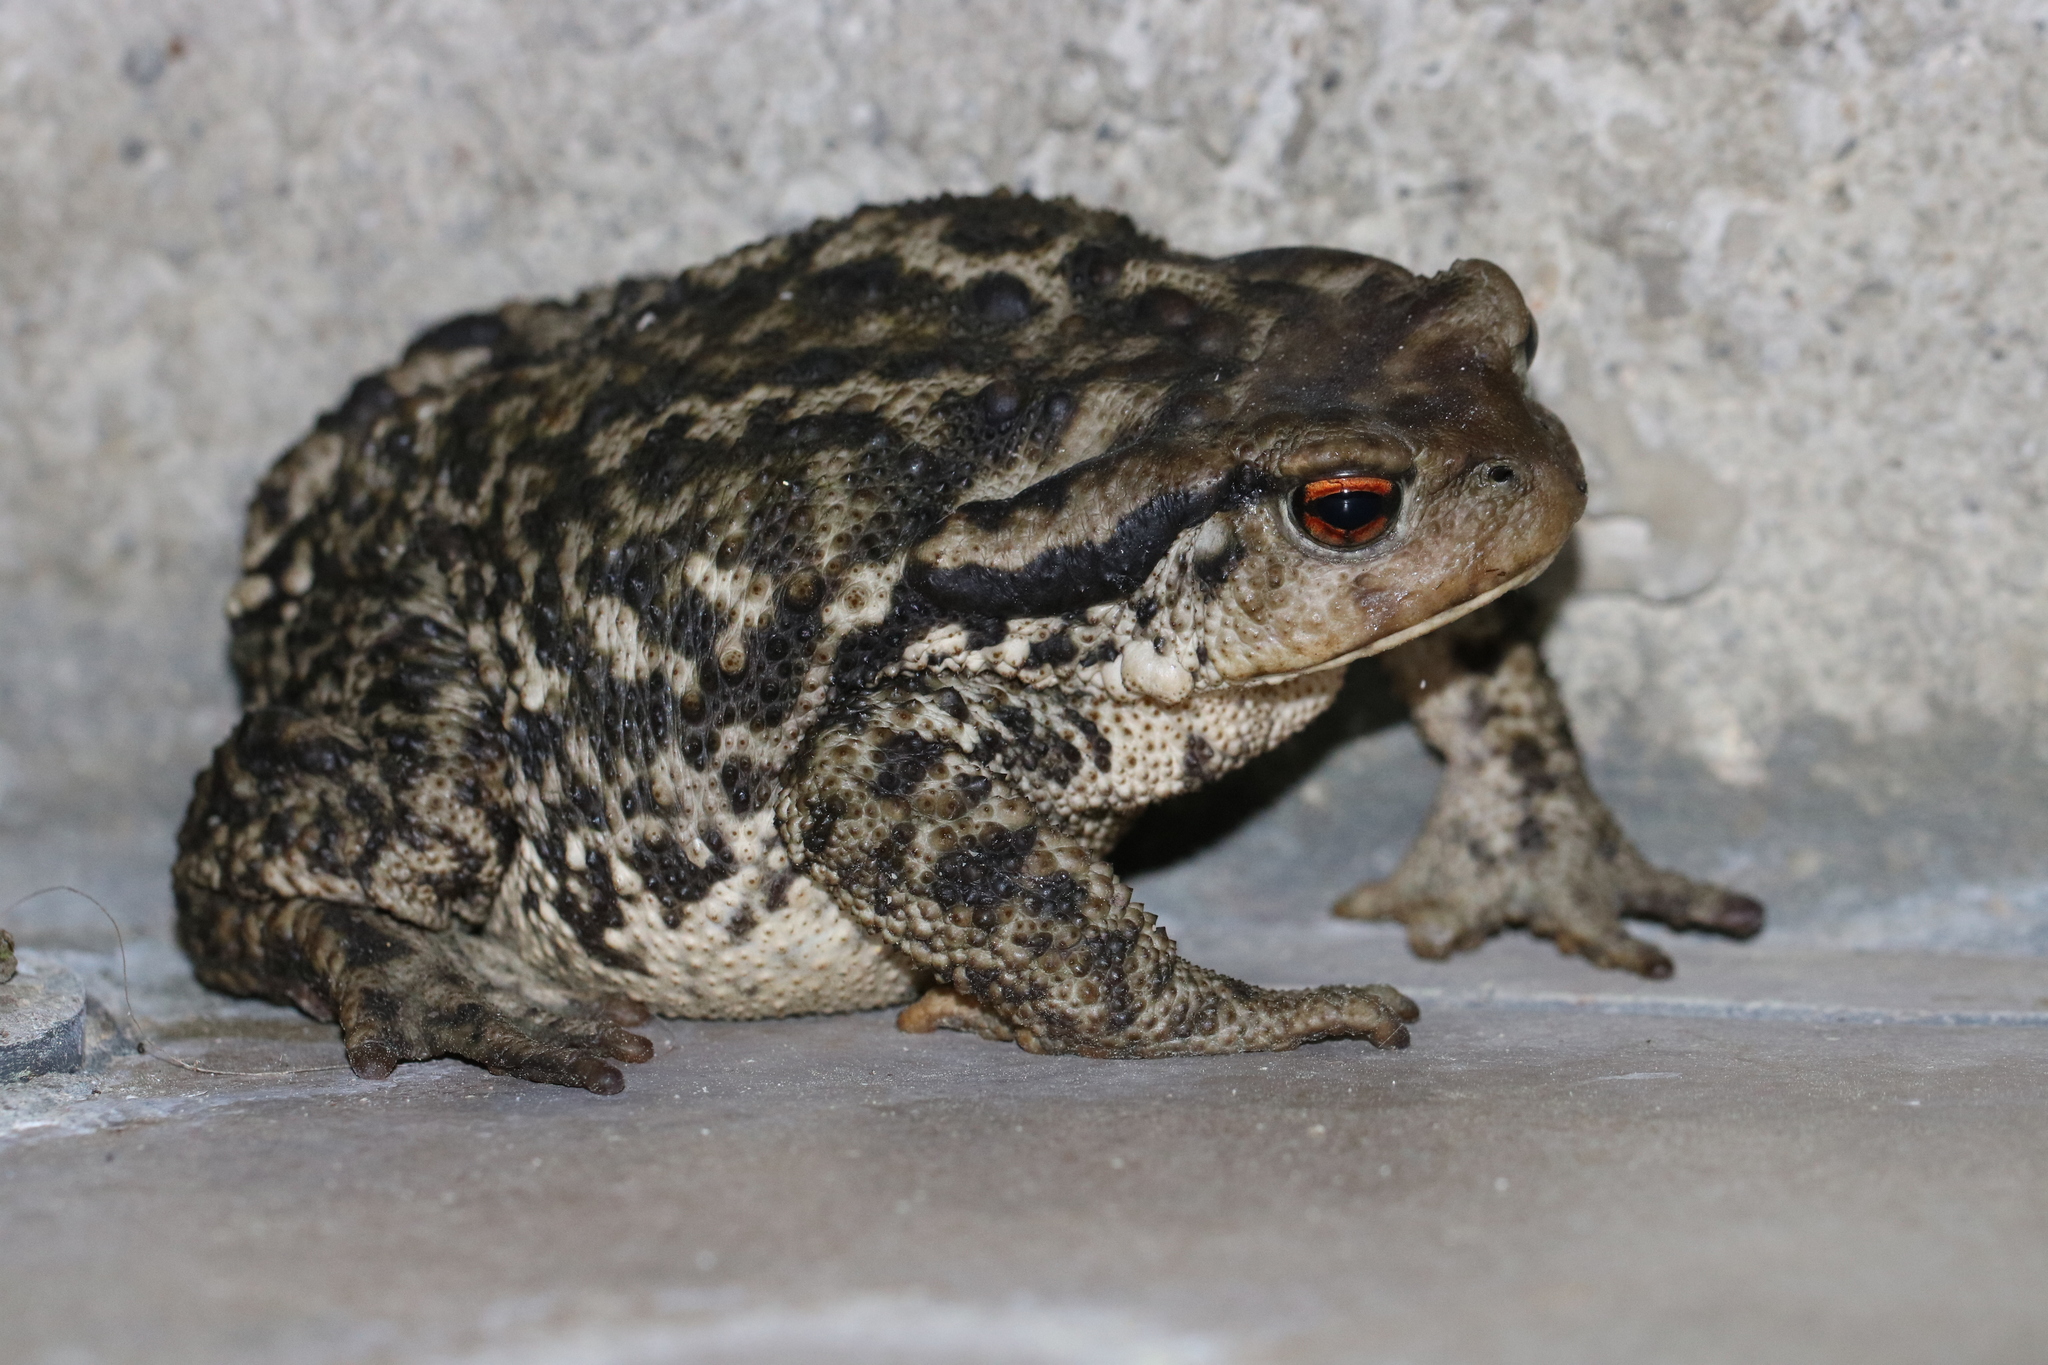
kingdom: Animalia
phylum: Chordata
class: Amphibia
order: Anura
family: Bufonidae
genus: Bufo
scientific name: Bufo spinosus
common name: Western common toad
